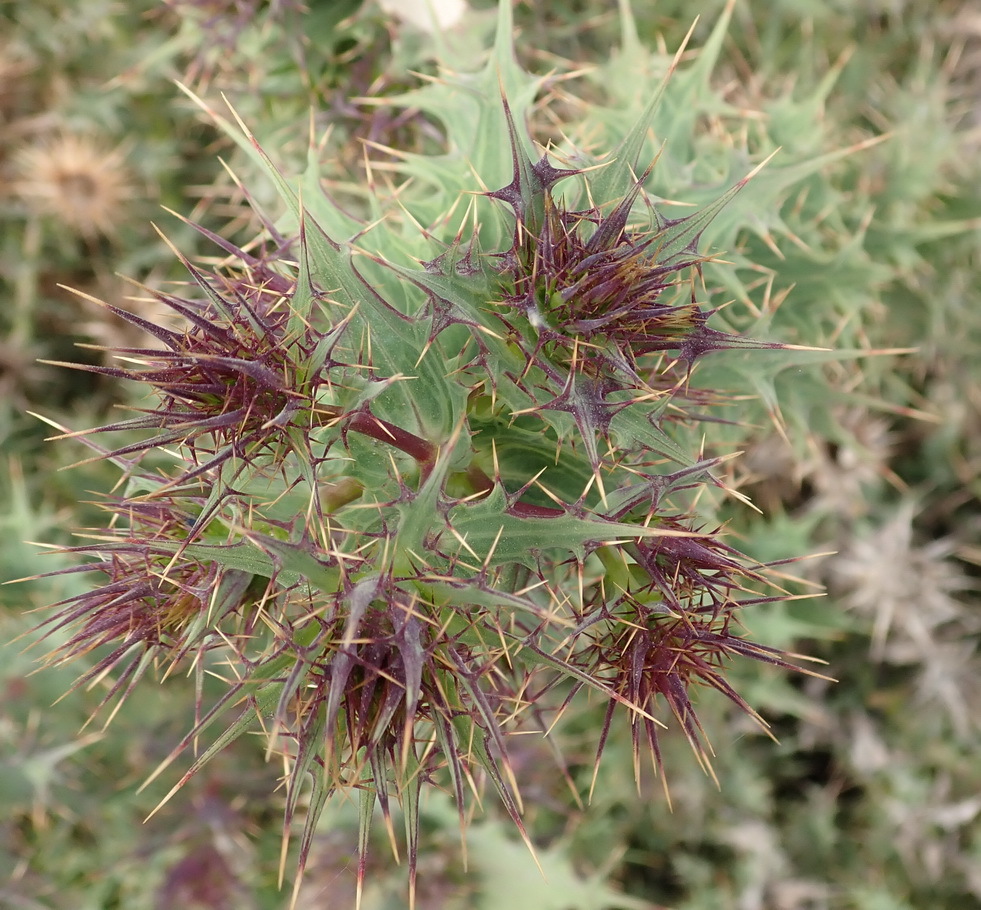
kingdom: Plantae
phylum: Tracheophyta
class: Magnoliopsida
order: Asterales
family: Asteraceae
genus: Berkheya
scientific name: Berkheya cruciata
